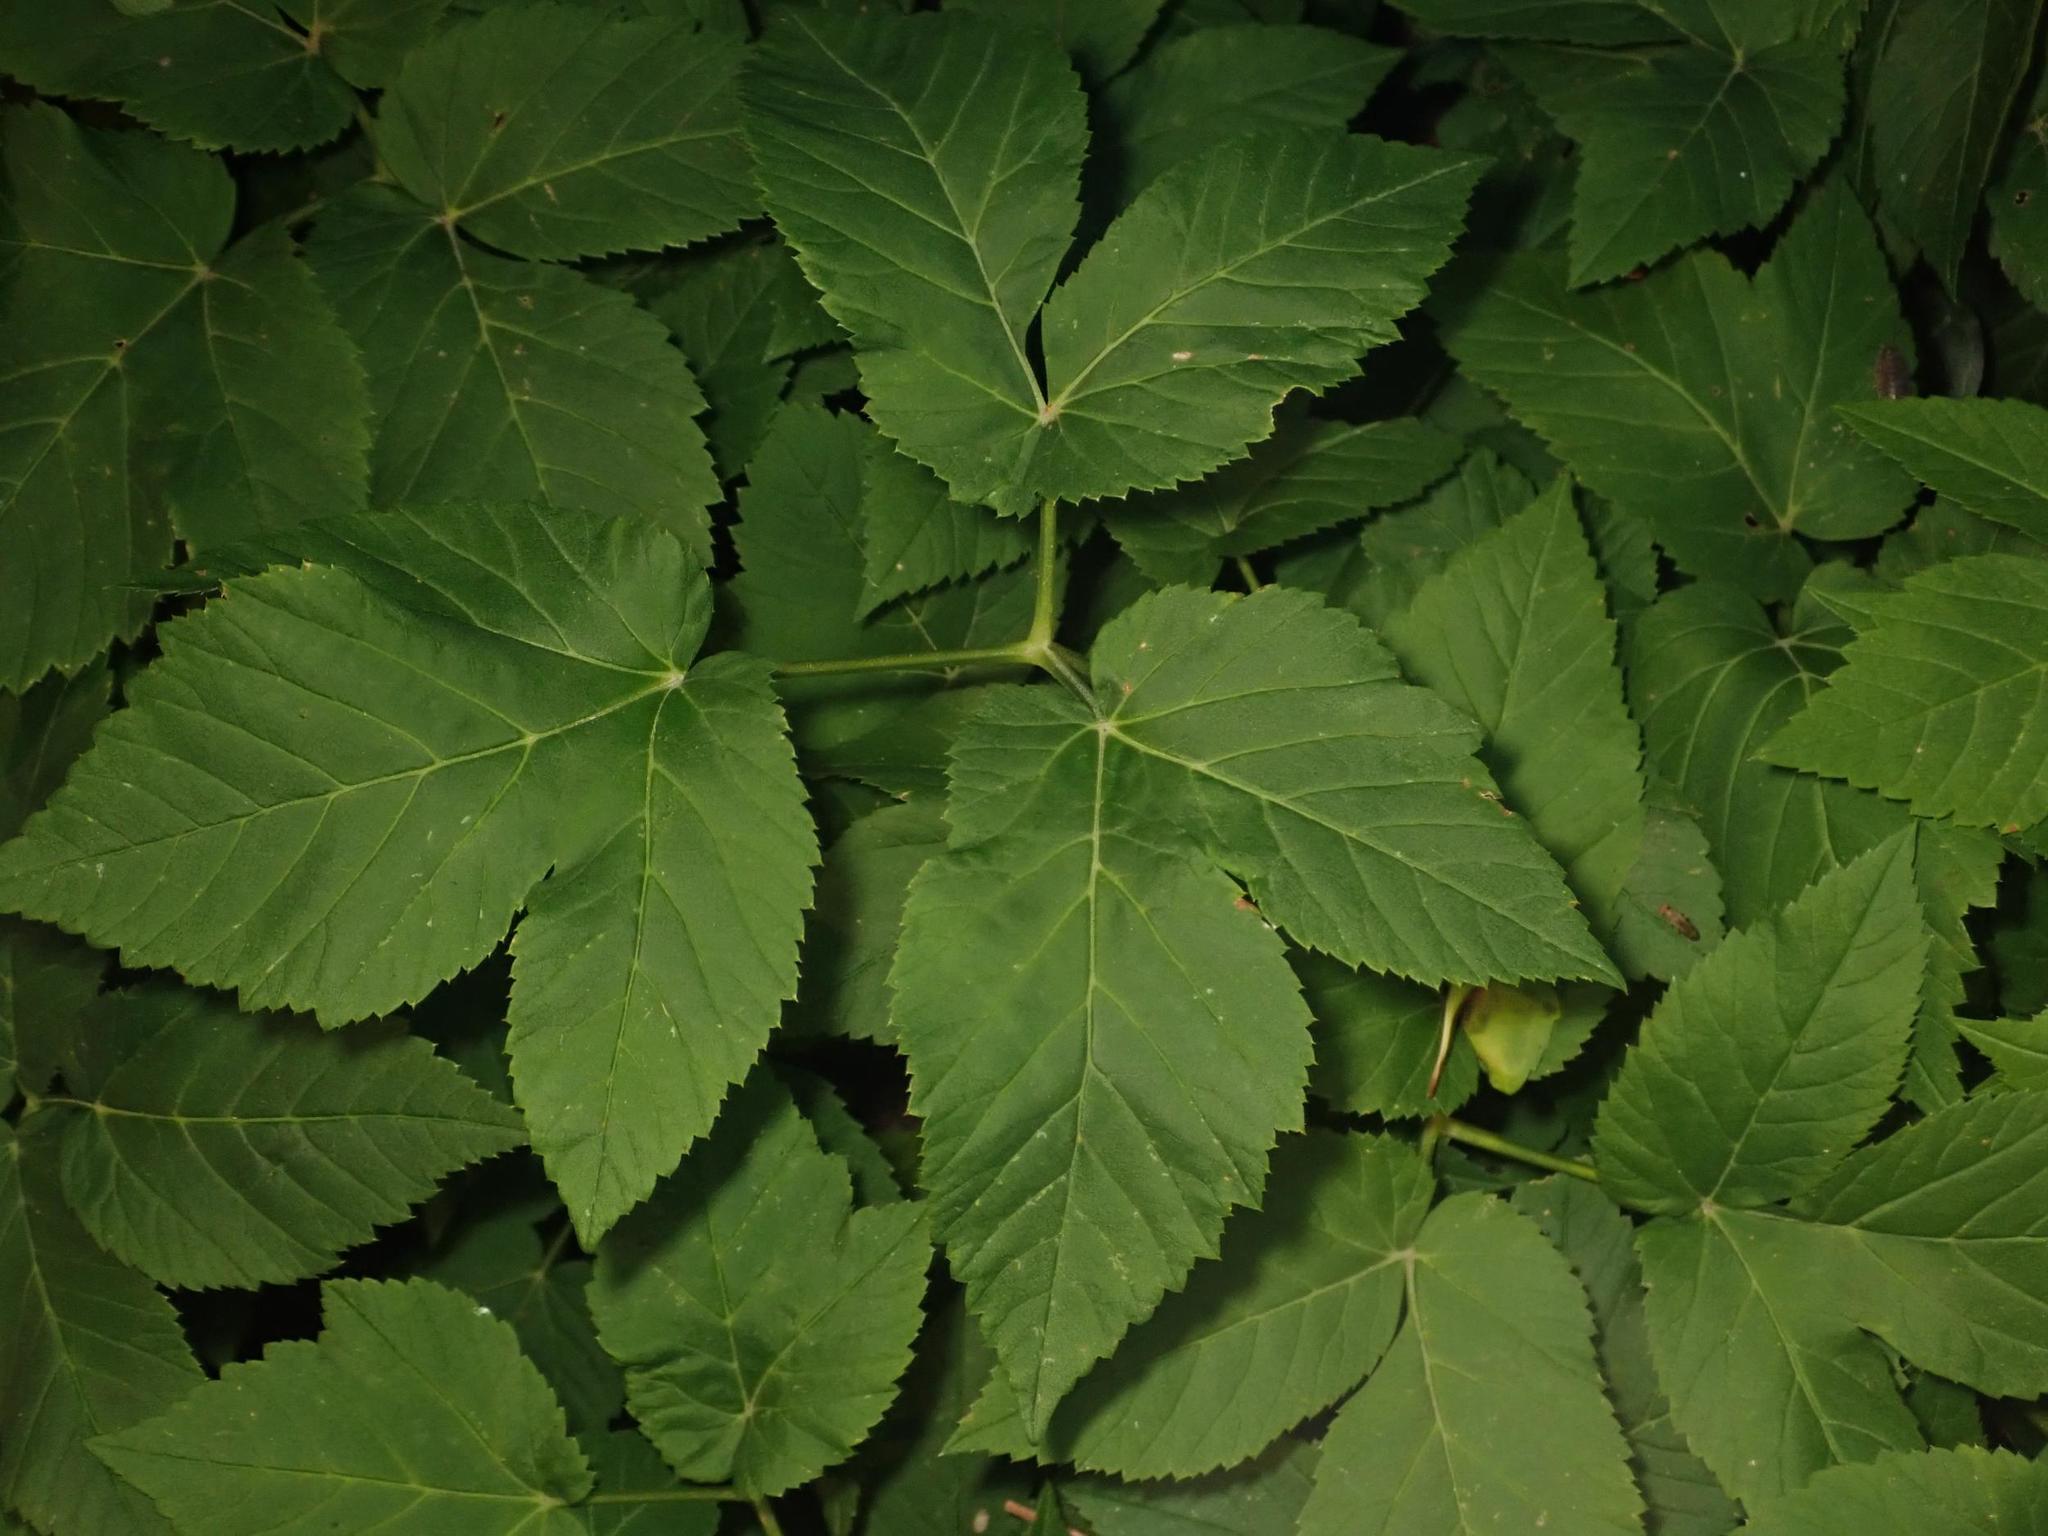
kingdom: Plantae
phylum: Tracheophyta
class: Magnoliopsida
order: Apiales
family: Apiaceae
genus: Aegopodium
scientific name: Aegopodium podagraria
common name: Ground-elder
